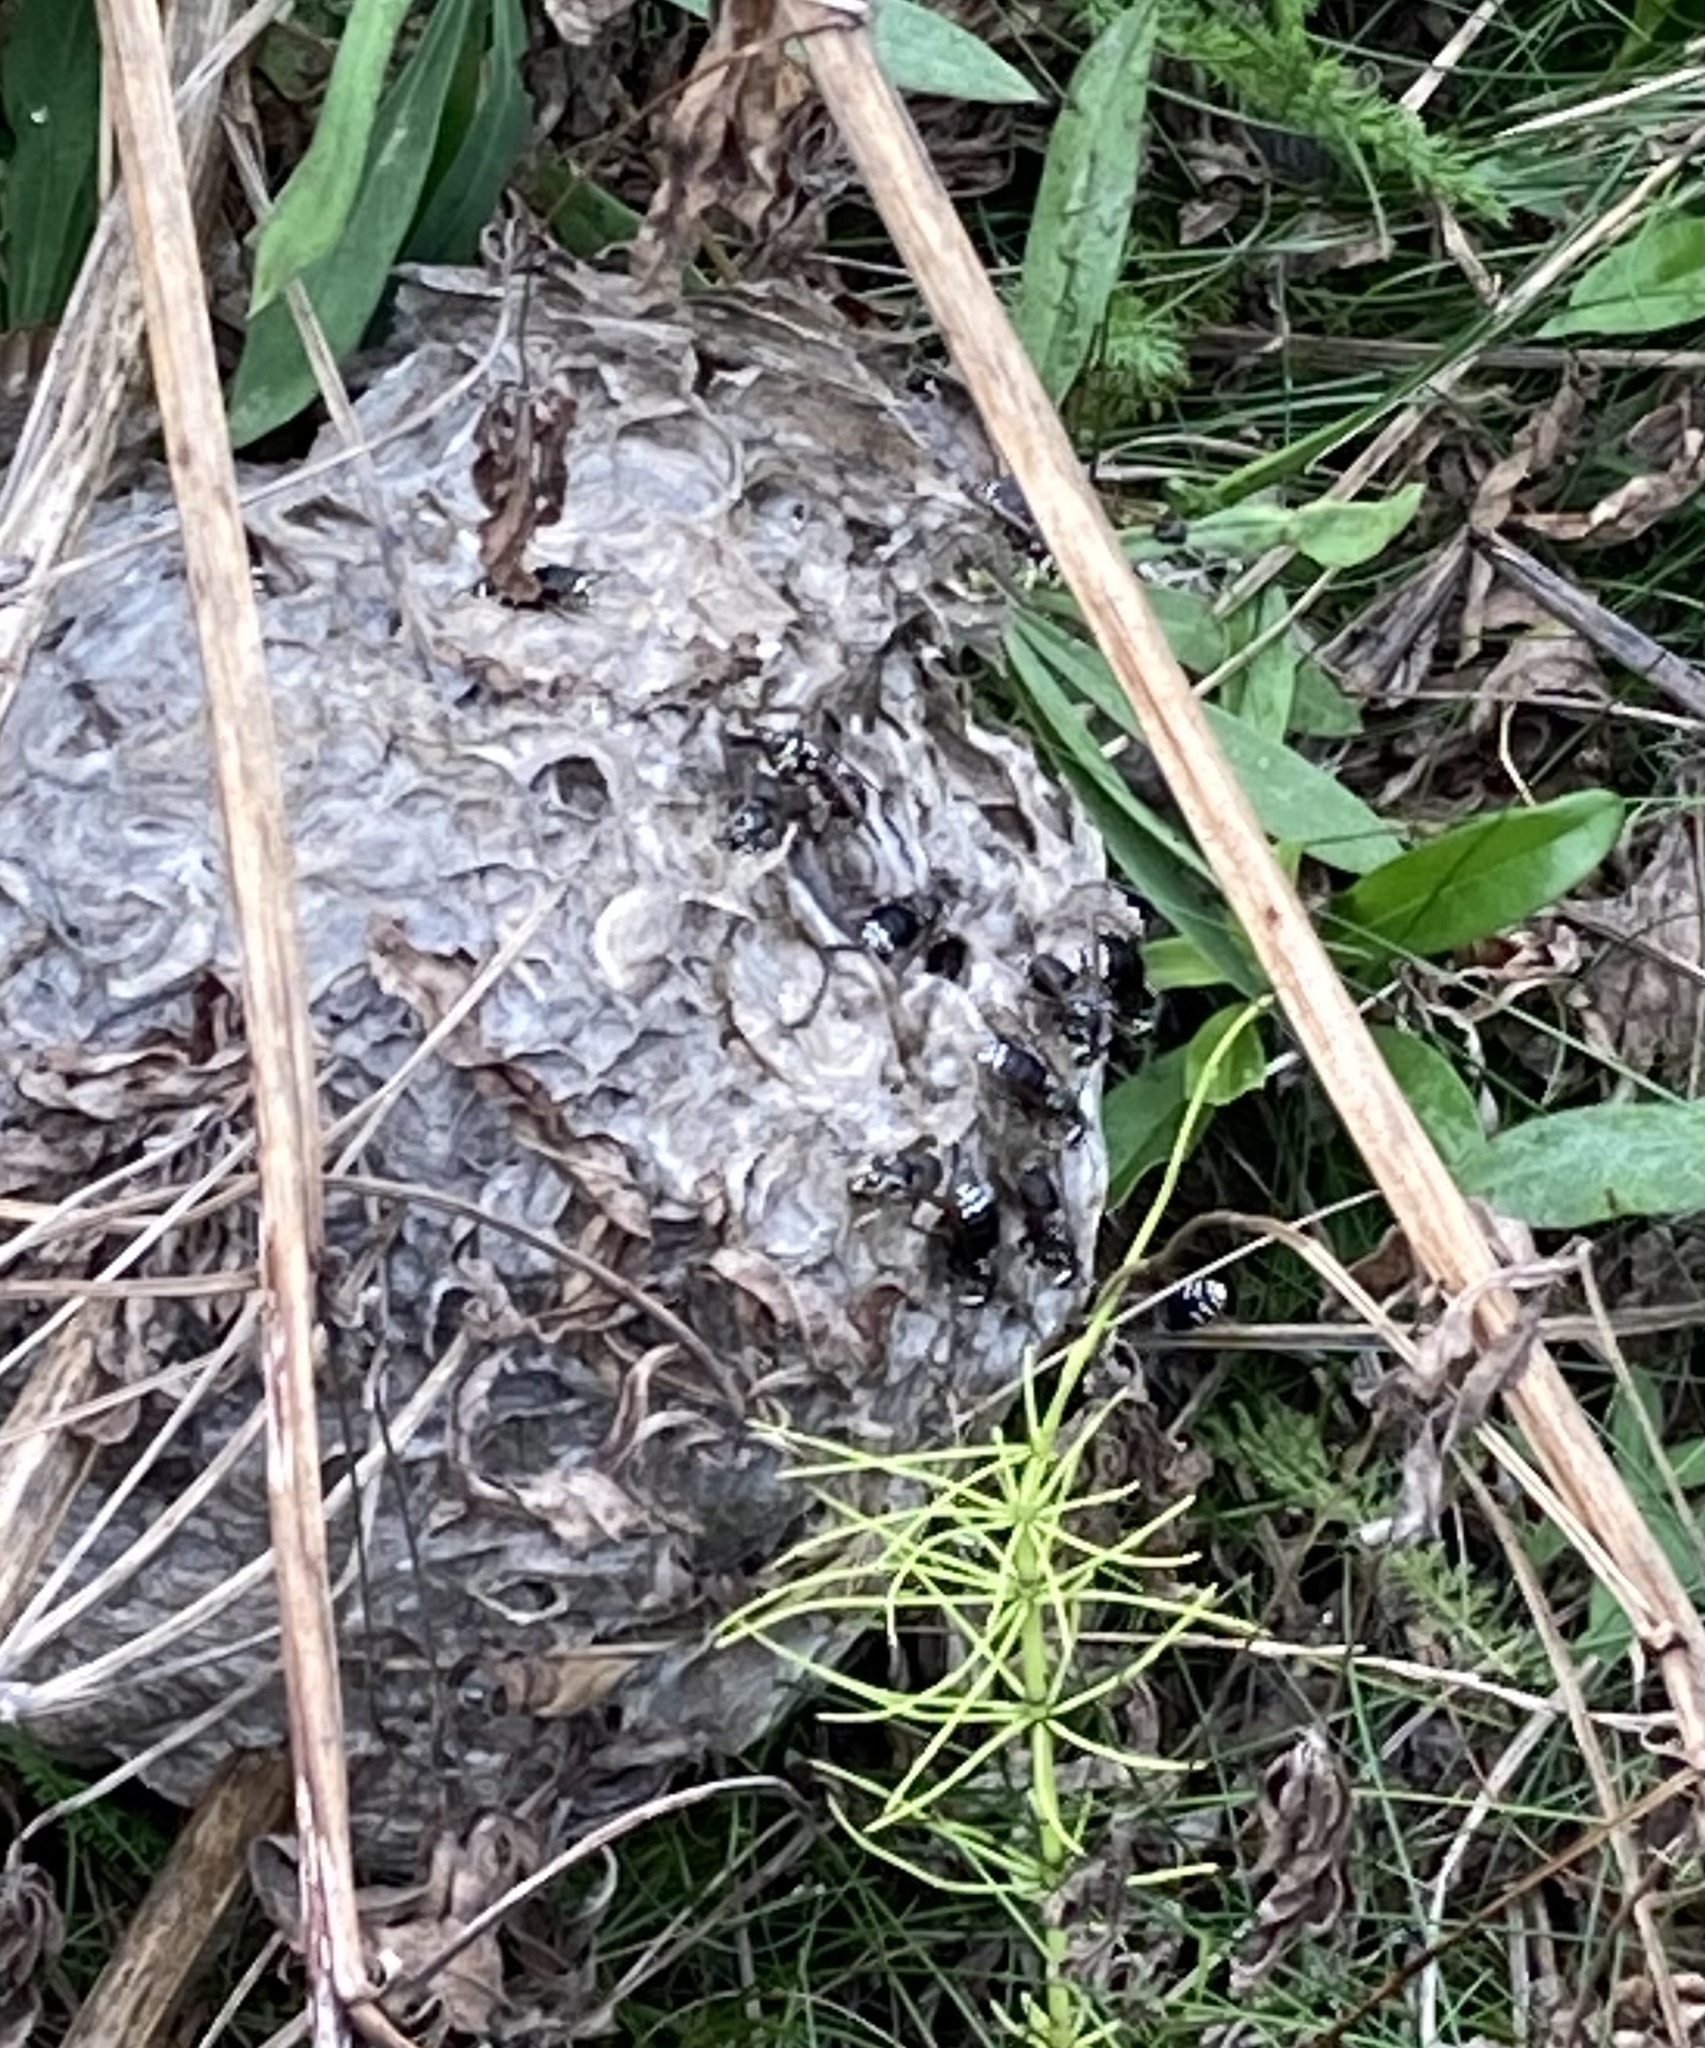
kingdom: Animalia
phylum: Arthropoda
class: Insecta
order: Hymenoptera
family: Vespidae
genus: Dolichovespula
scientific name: Dolichovespula maculata
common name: Bald-faced hornet
